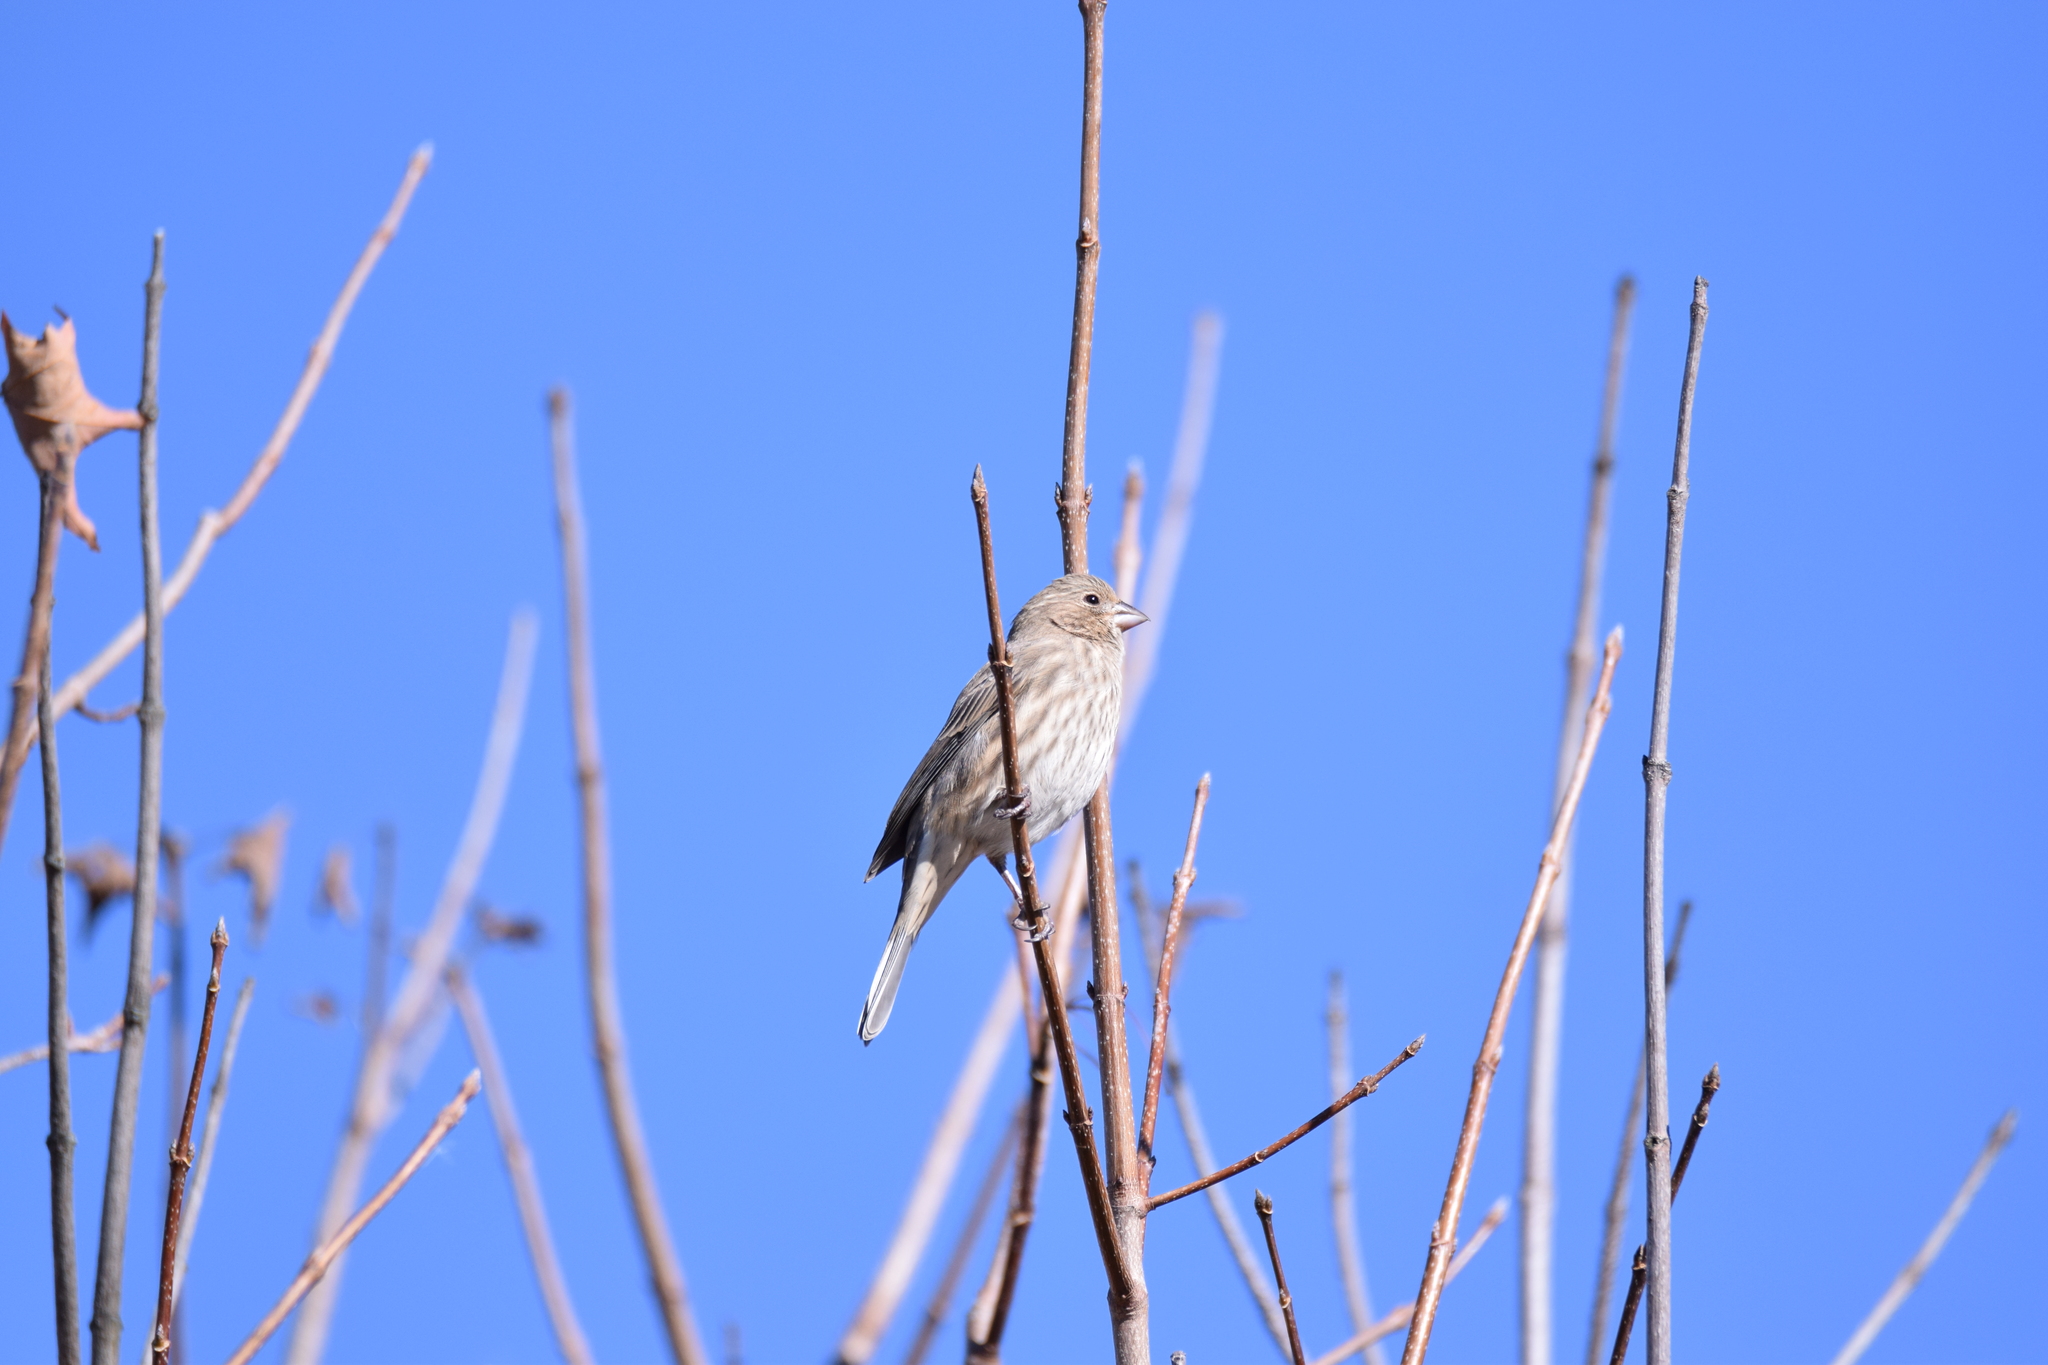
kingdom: Animalia
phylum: Chordata
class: Aves
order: Passeriformes
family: Fringillidae
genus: Haemorhous
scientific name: Haemorhous mexicanus
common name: House finch
